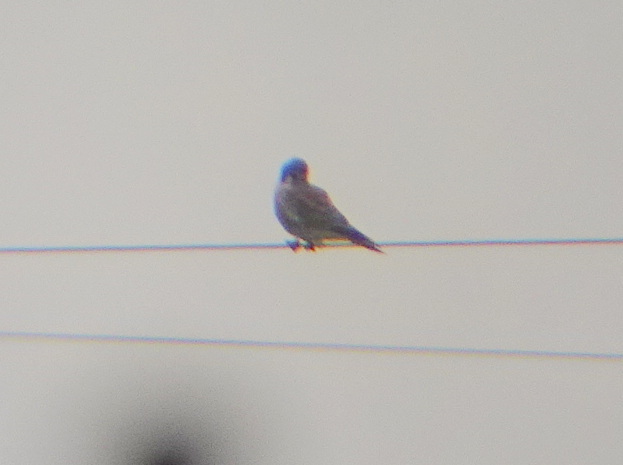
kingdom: Animalia
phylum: Chordata
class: Aves
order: Falconiformes
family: Falconidae
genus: Falco
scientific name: Falco sparverius
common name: American kestrel
